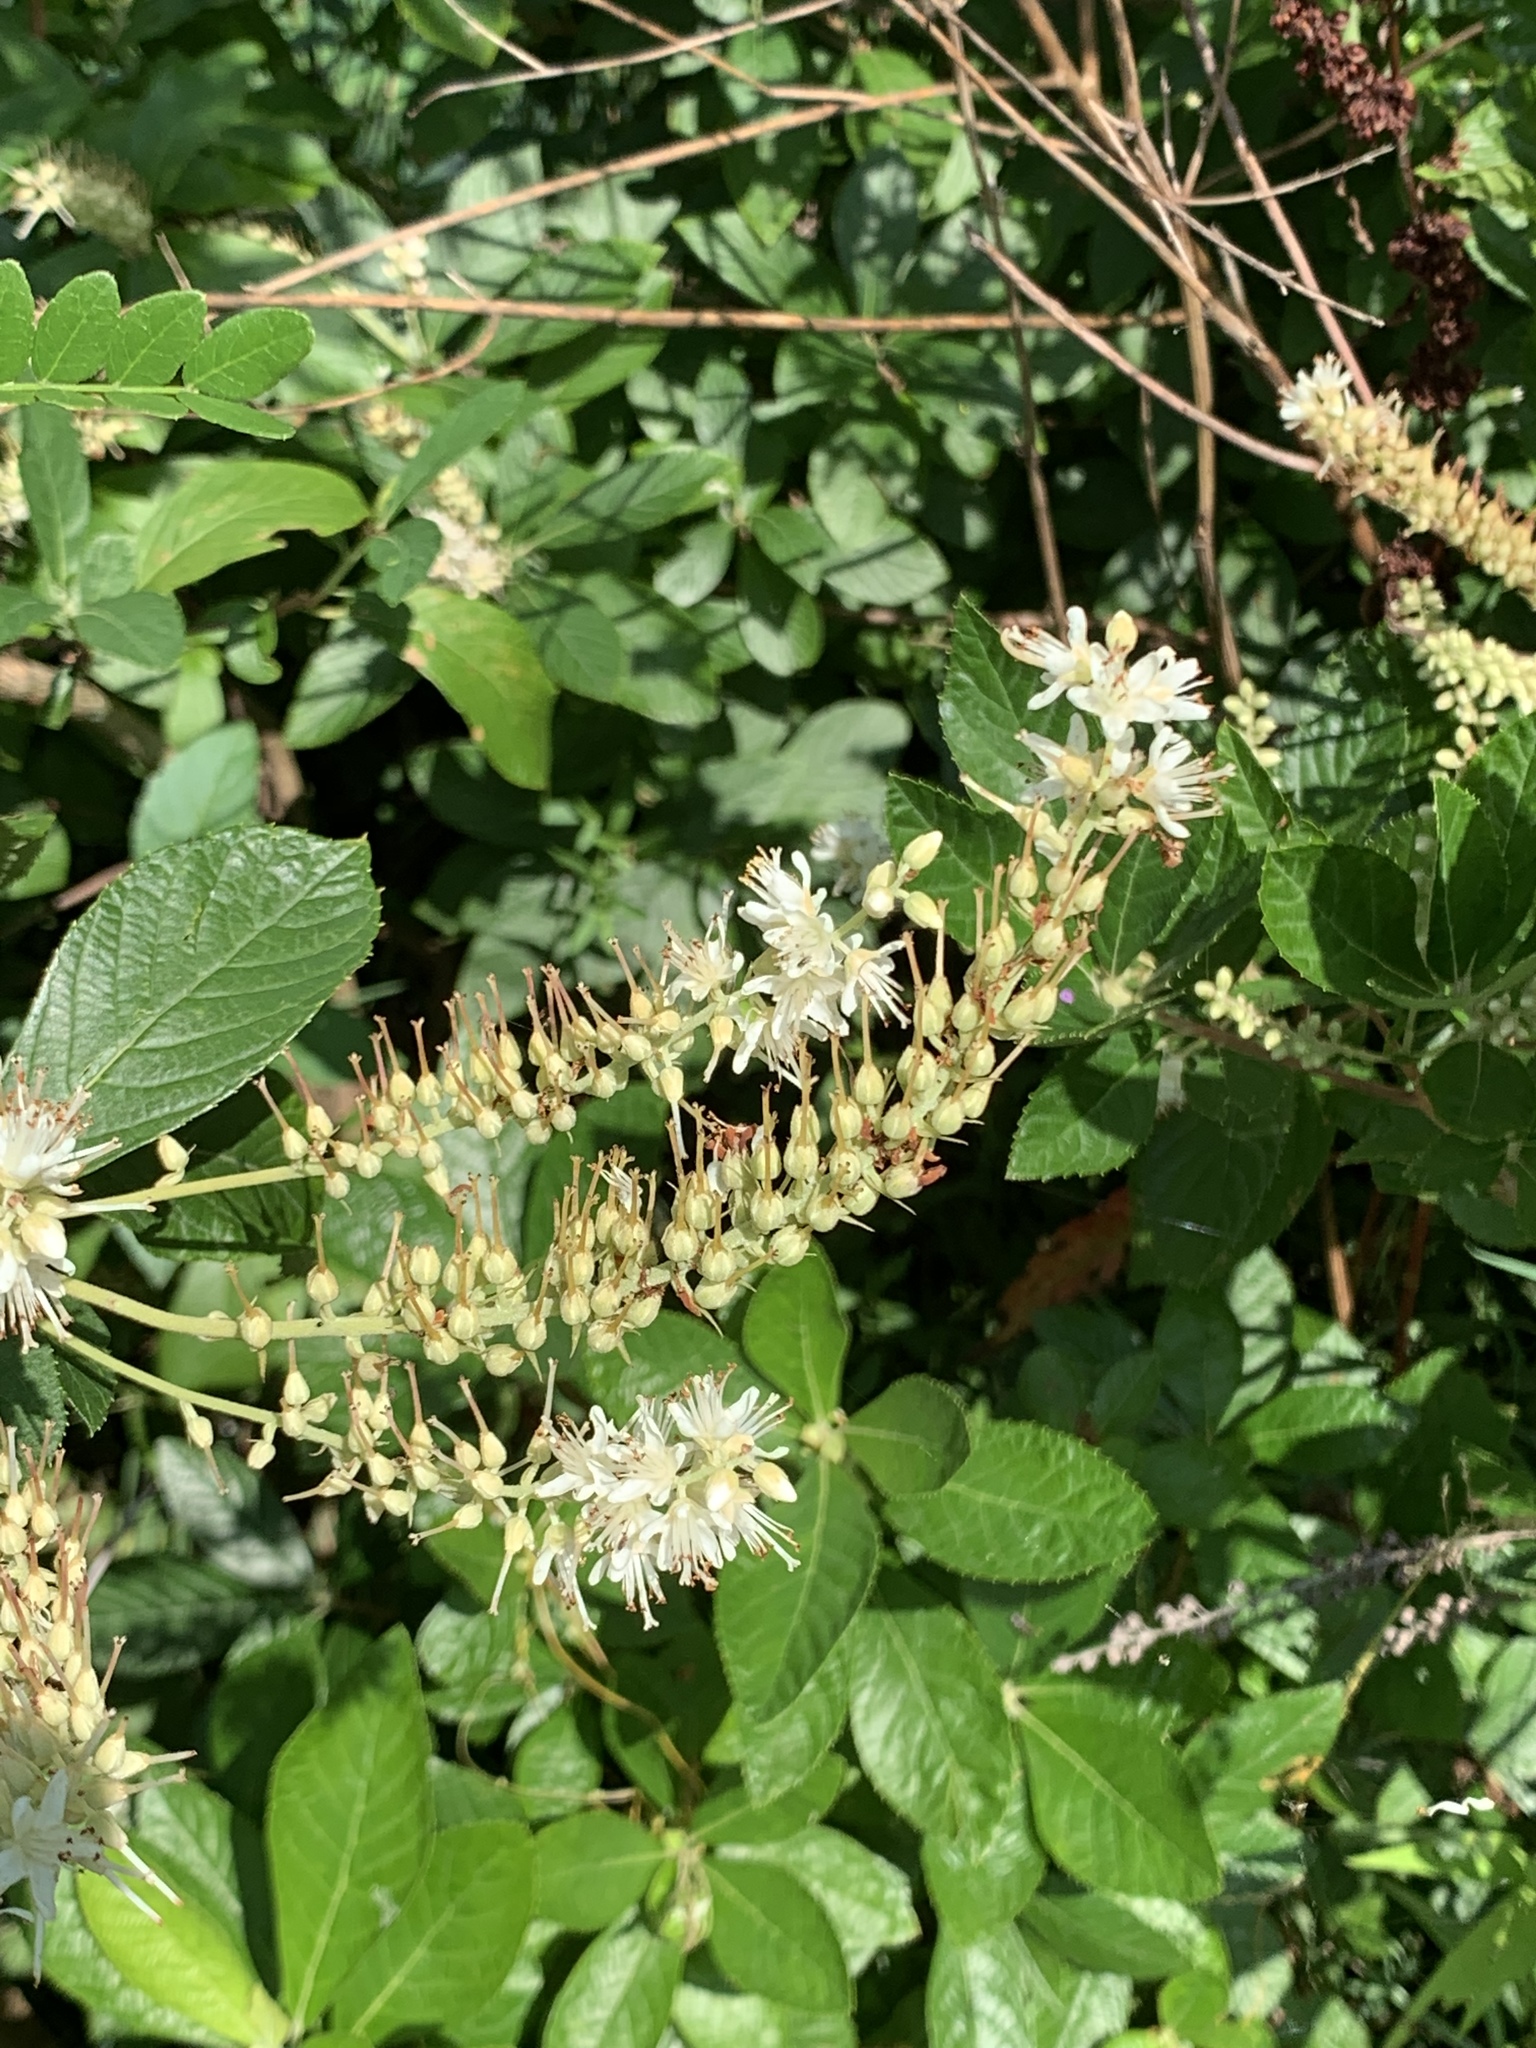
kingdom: Plantae
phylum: Tracheophyta
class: Magnoliopsida
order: Ericales
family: Clethraceae
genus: Clethra
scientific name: Clethra alnifolia
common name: Sweet pepperbush
